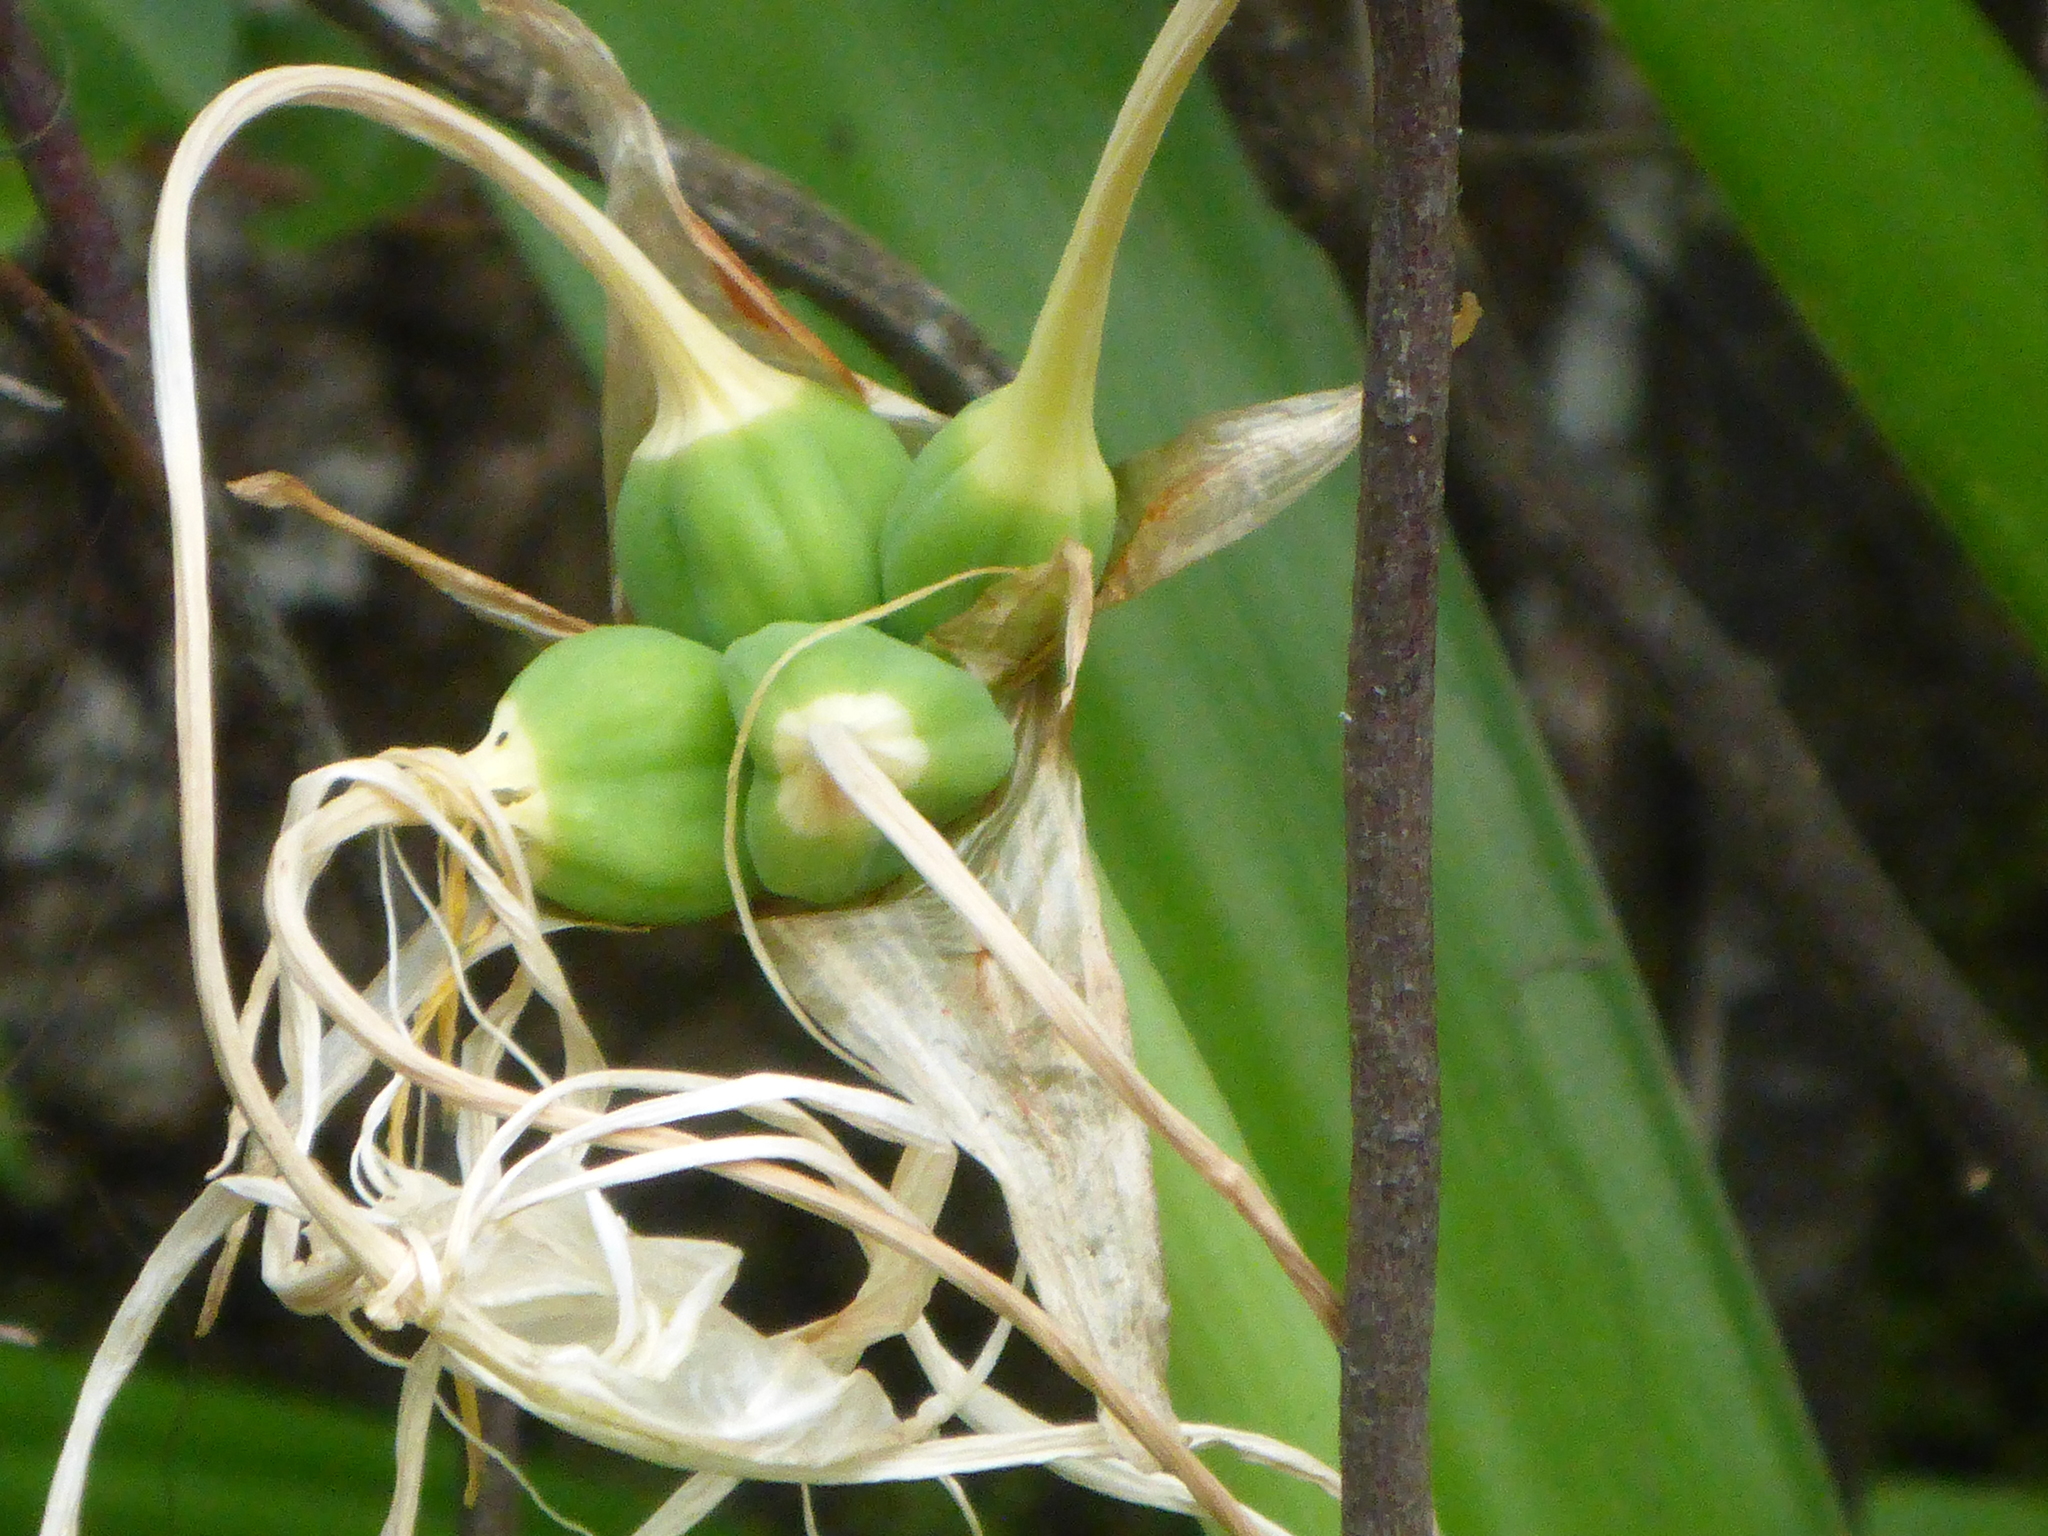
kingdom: Plantae
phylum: Tracheophyta
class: Liliopsida
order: Asparagales
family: Amaryllidaceae
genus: Hymenocallis
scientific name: Hymenocallis franklinensis
